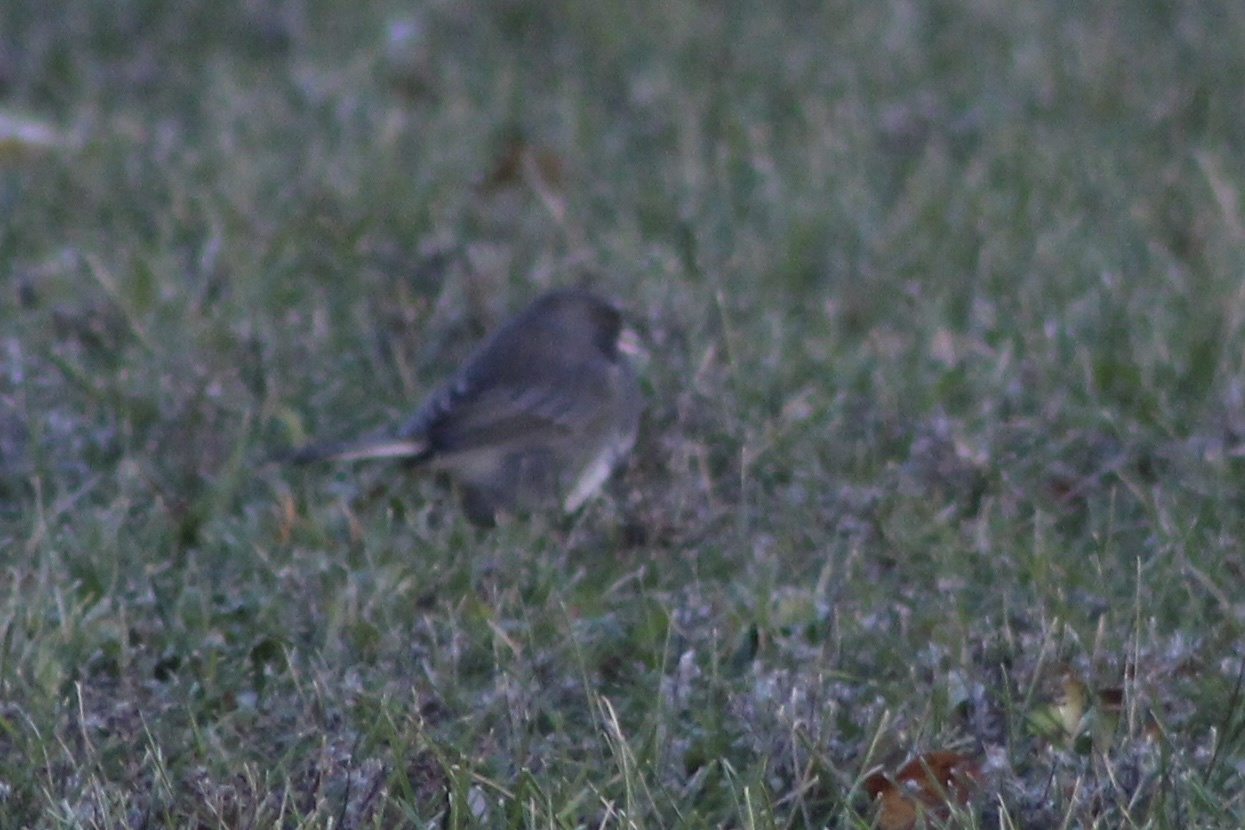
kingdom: Animalia
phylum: Chordata
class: Aves
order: Passeriformes
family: Passerellidae
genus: Junco
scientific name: Junco hyemalis
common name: Dark-eyed junco
